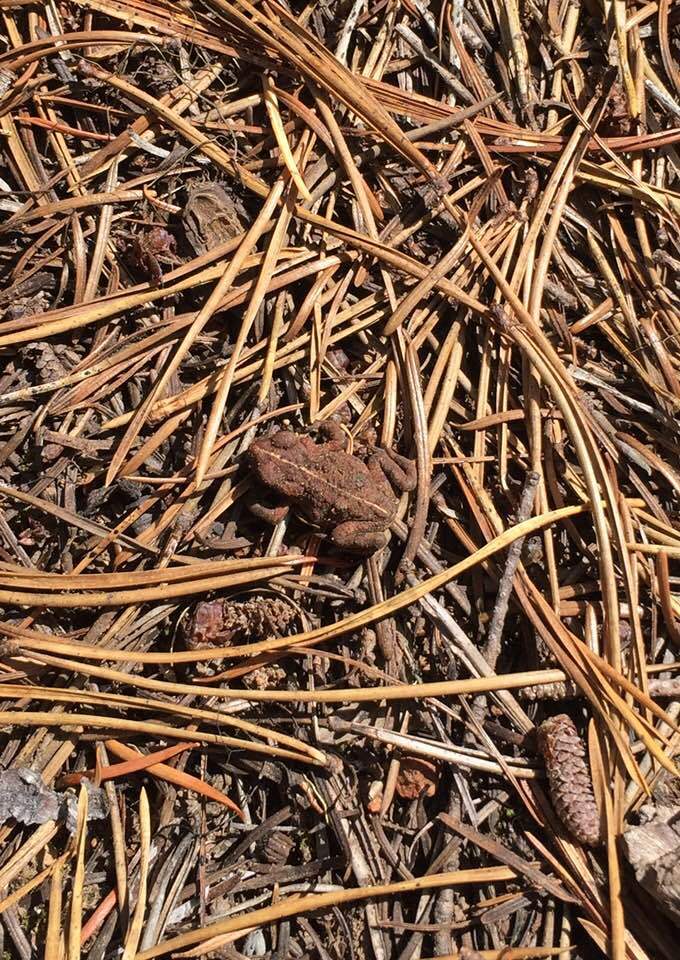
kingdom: Animalia
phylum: Chordata
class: Amphibia
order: Anura
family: Bufonidae
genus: Anaxyrus
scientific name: Anaxyrus boreas
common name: Western toad
